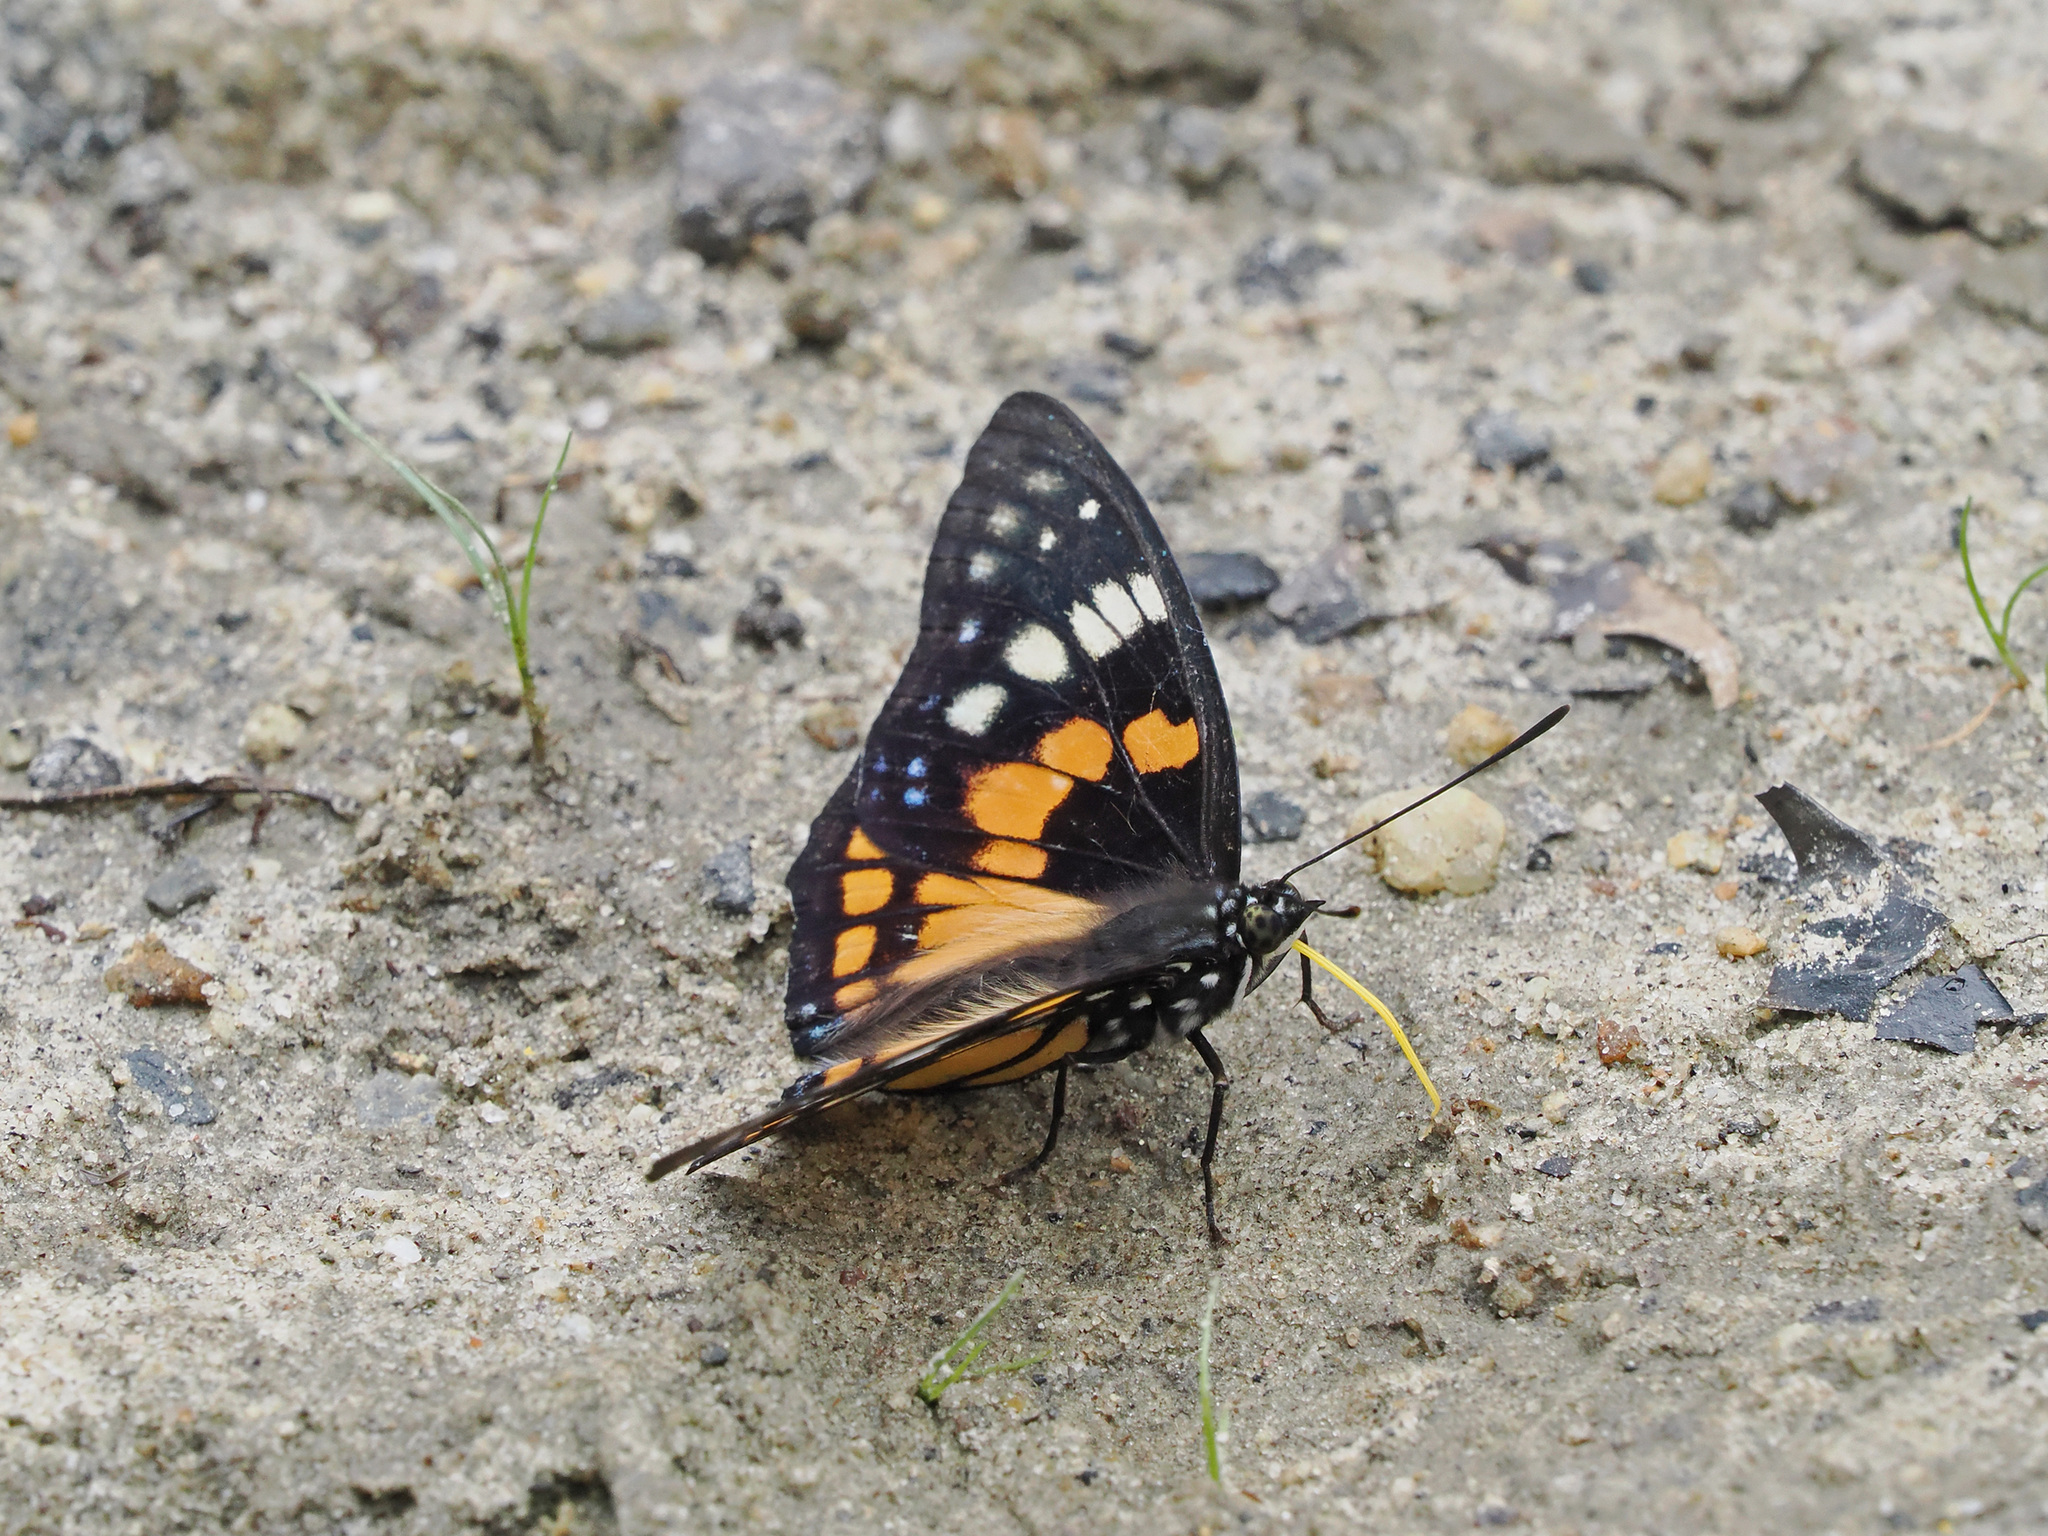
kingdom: Animalia
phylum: Arthropoda
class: Insecta
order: Lepidoptera
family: Nymphalidae
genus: Sephisa
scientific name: Sephisa chandra
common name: Eastern courtier
